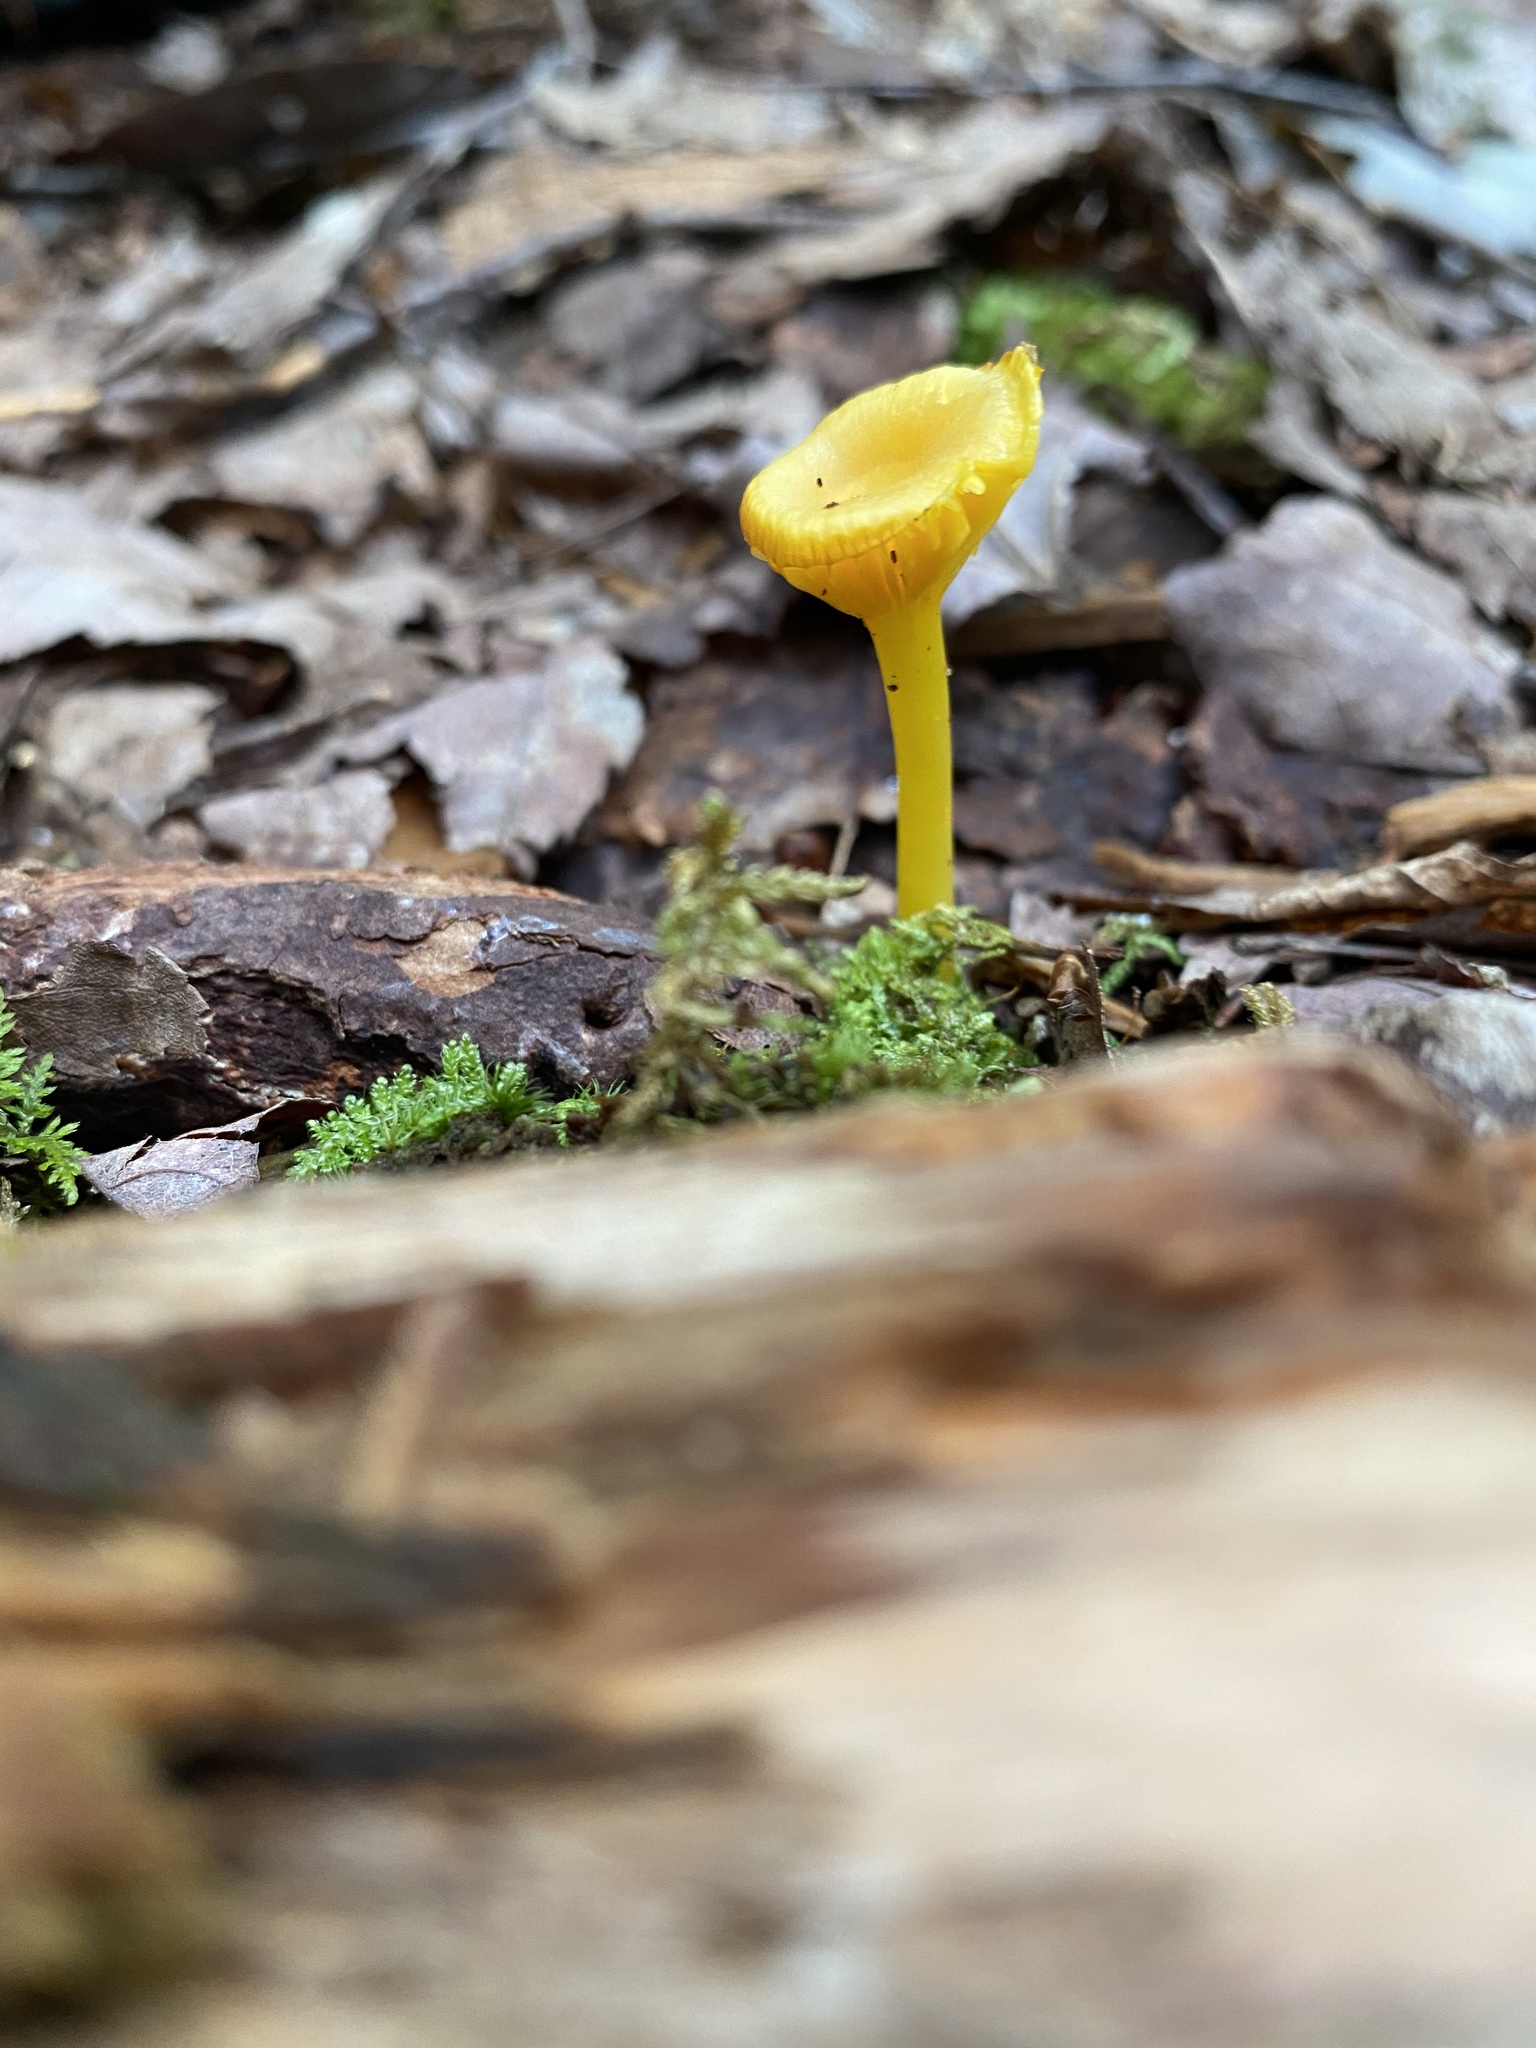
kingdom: Fungi
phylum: Basidiomycota
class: Agaricomycetes
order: Agaricales
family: Hygrophoraceae
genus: Gloioxanthomyces
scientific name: Gloioxanthomyces nitidus
